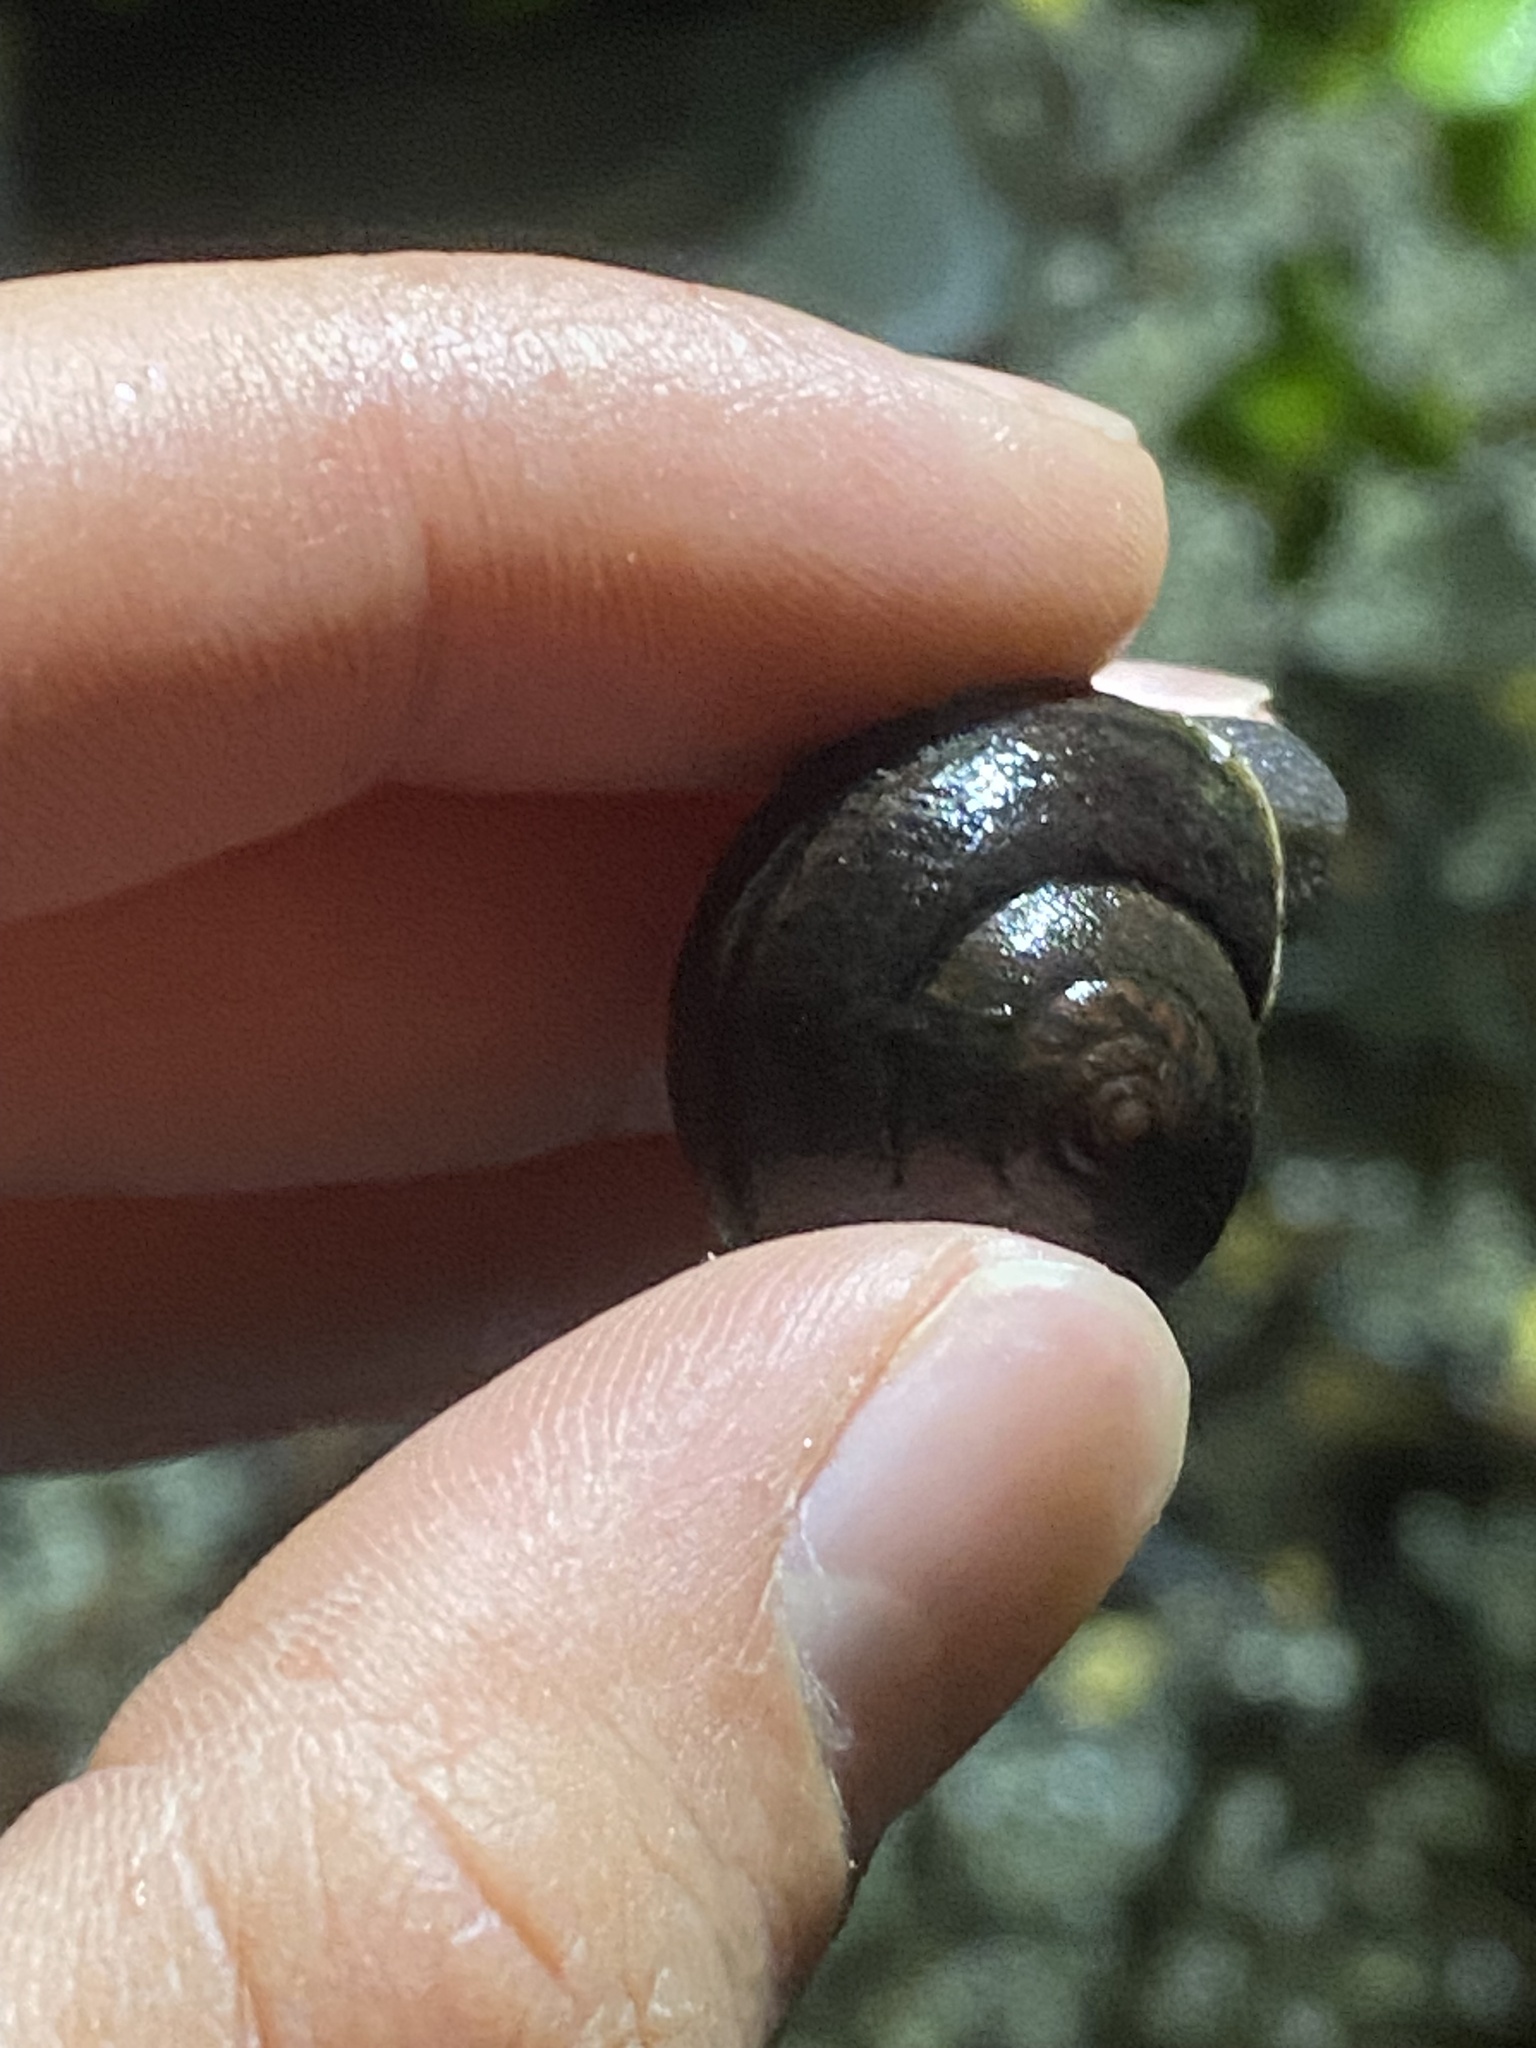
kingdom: Animalia
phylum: Mollusca
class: Gastropoda
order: Stylommatophora
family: Xanthonychidae
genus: Helminthoglypta
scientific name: Helminthoglypta nickliniana
